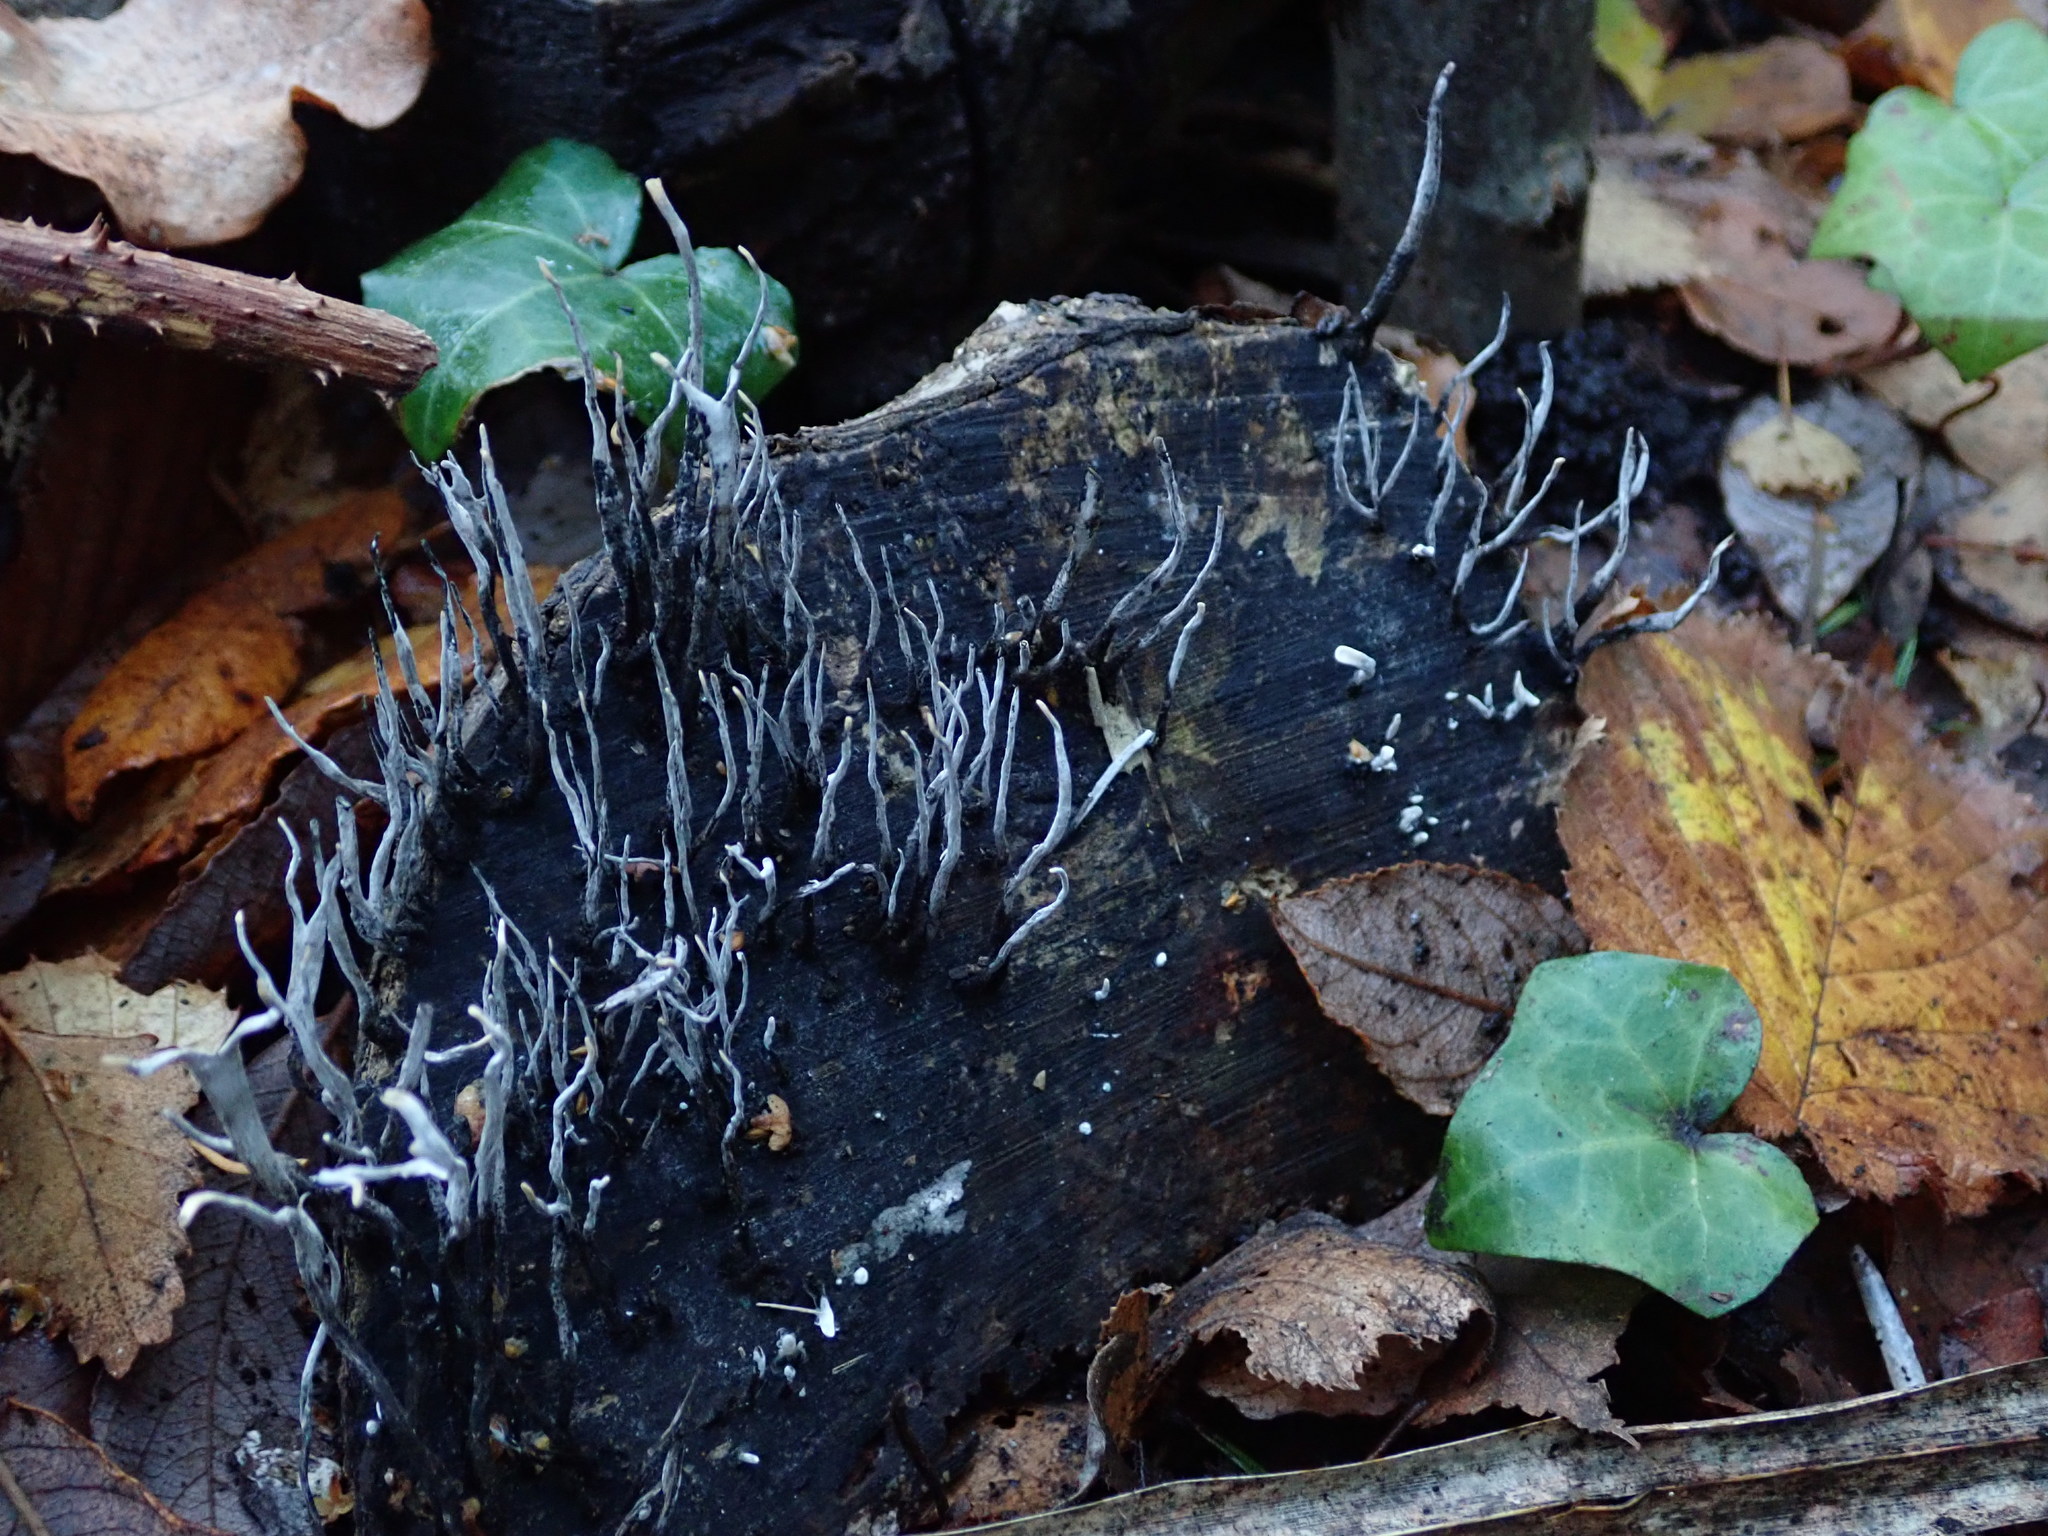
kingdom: Fungi
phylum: Ascomycota
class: Sordariomycetes
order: Xylariales
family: Xylariaceae
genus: Xylaria
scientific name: Xylaria hypoxylon
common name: Candle-snuff fungus
